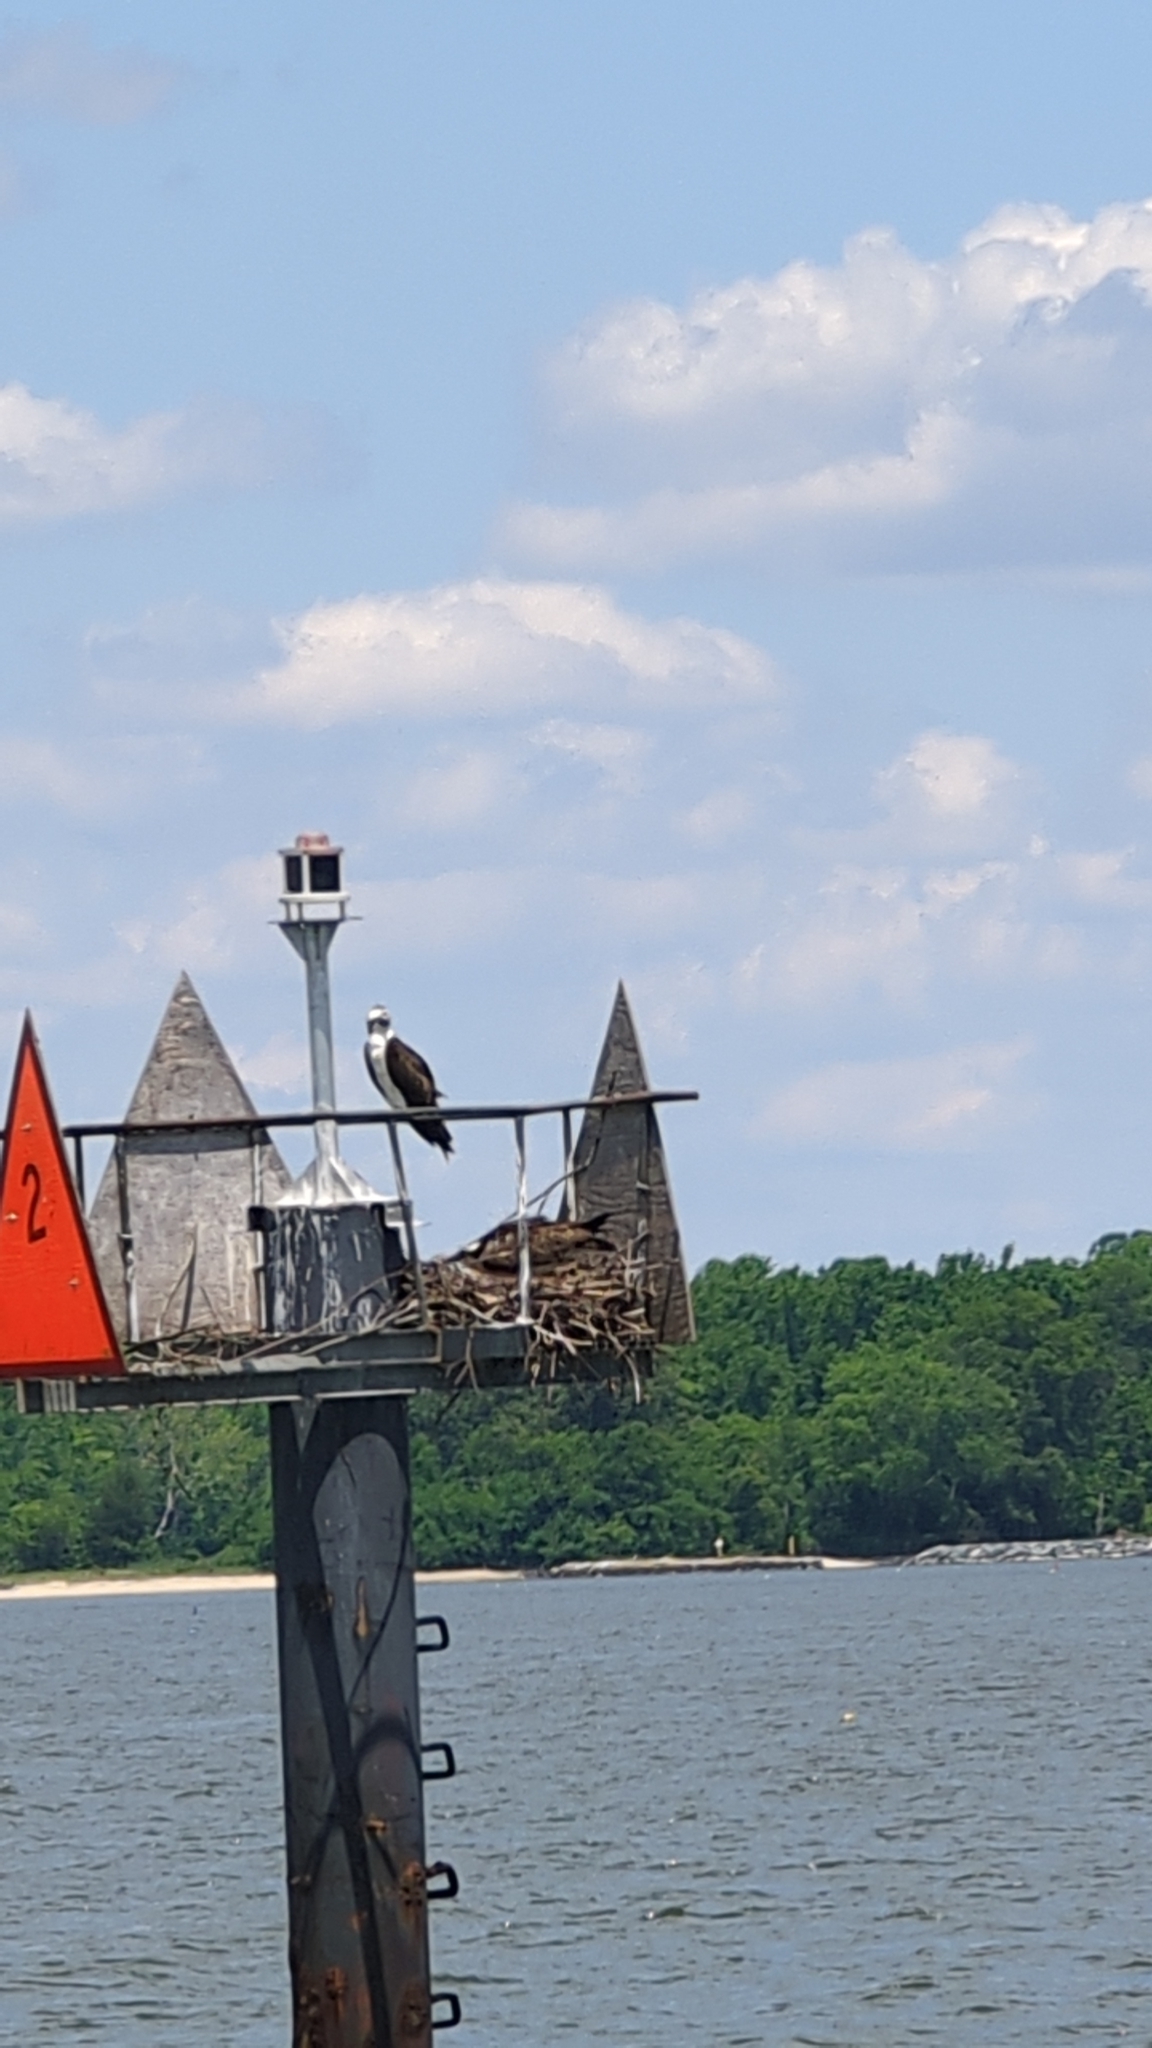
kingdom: Animalia
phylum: Chordata
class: Aves
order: Accipitriformes
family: Pandionidae
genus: Pandion
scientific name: Pandion haliaetus
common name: Osprey
